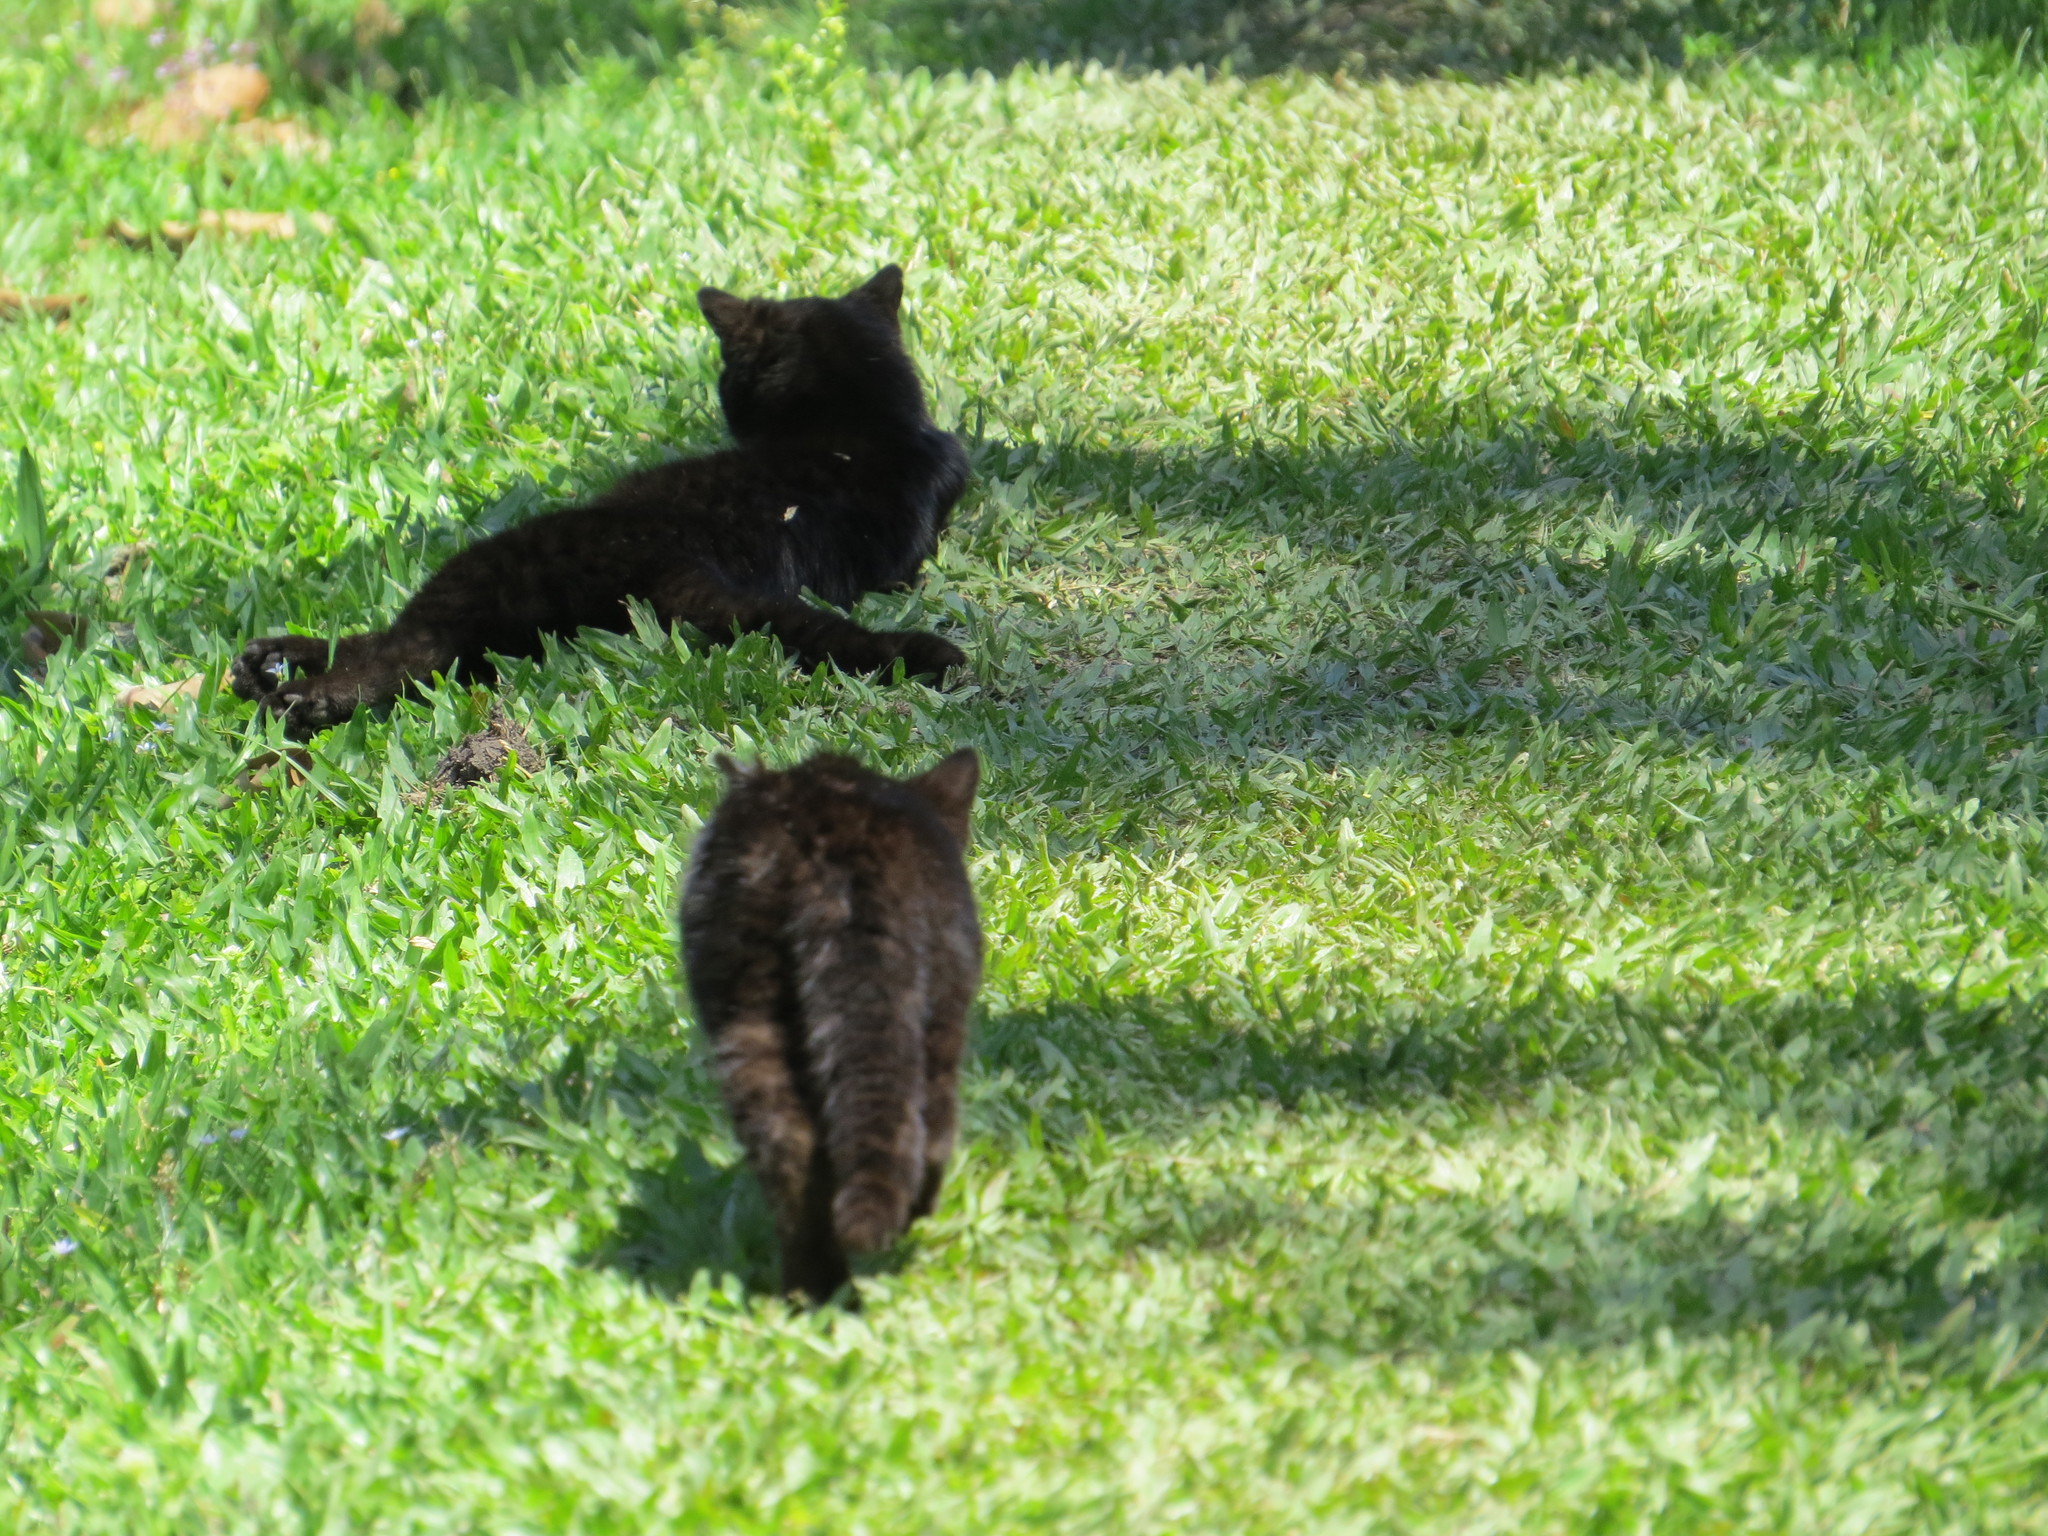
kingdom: Animalia
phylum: Chordata
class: Mammalia
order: Carnivora
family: Felidae
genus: Leopardus
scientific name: Leopardus geoffroyi
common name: Geoffroy's cat
